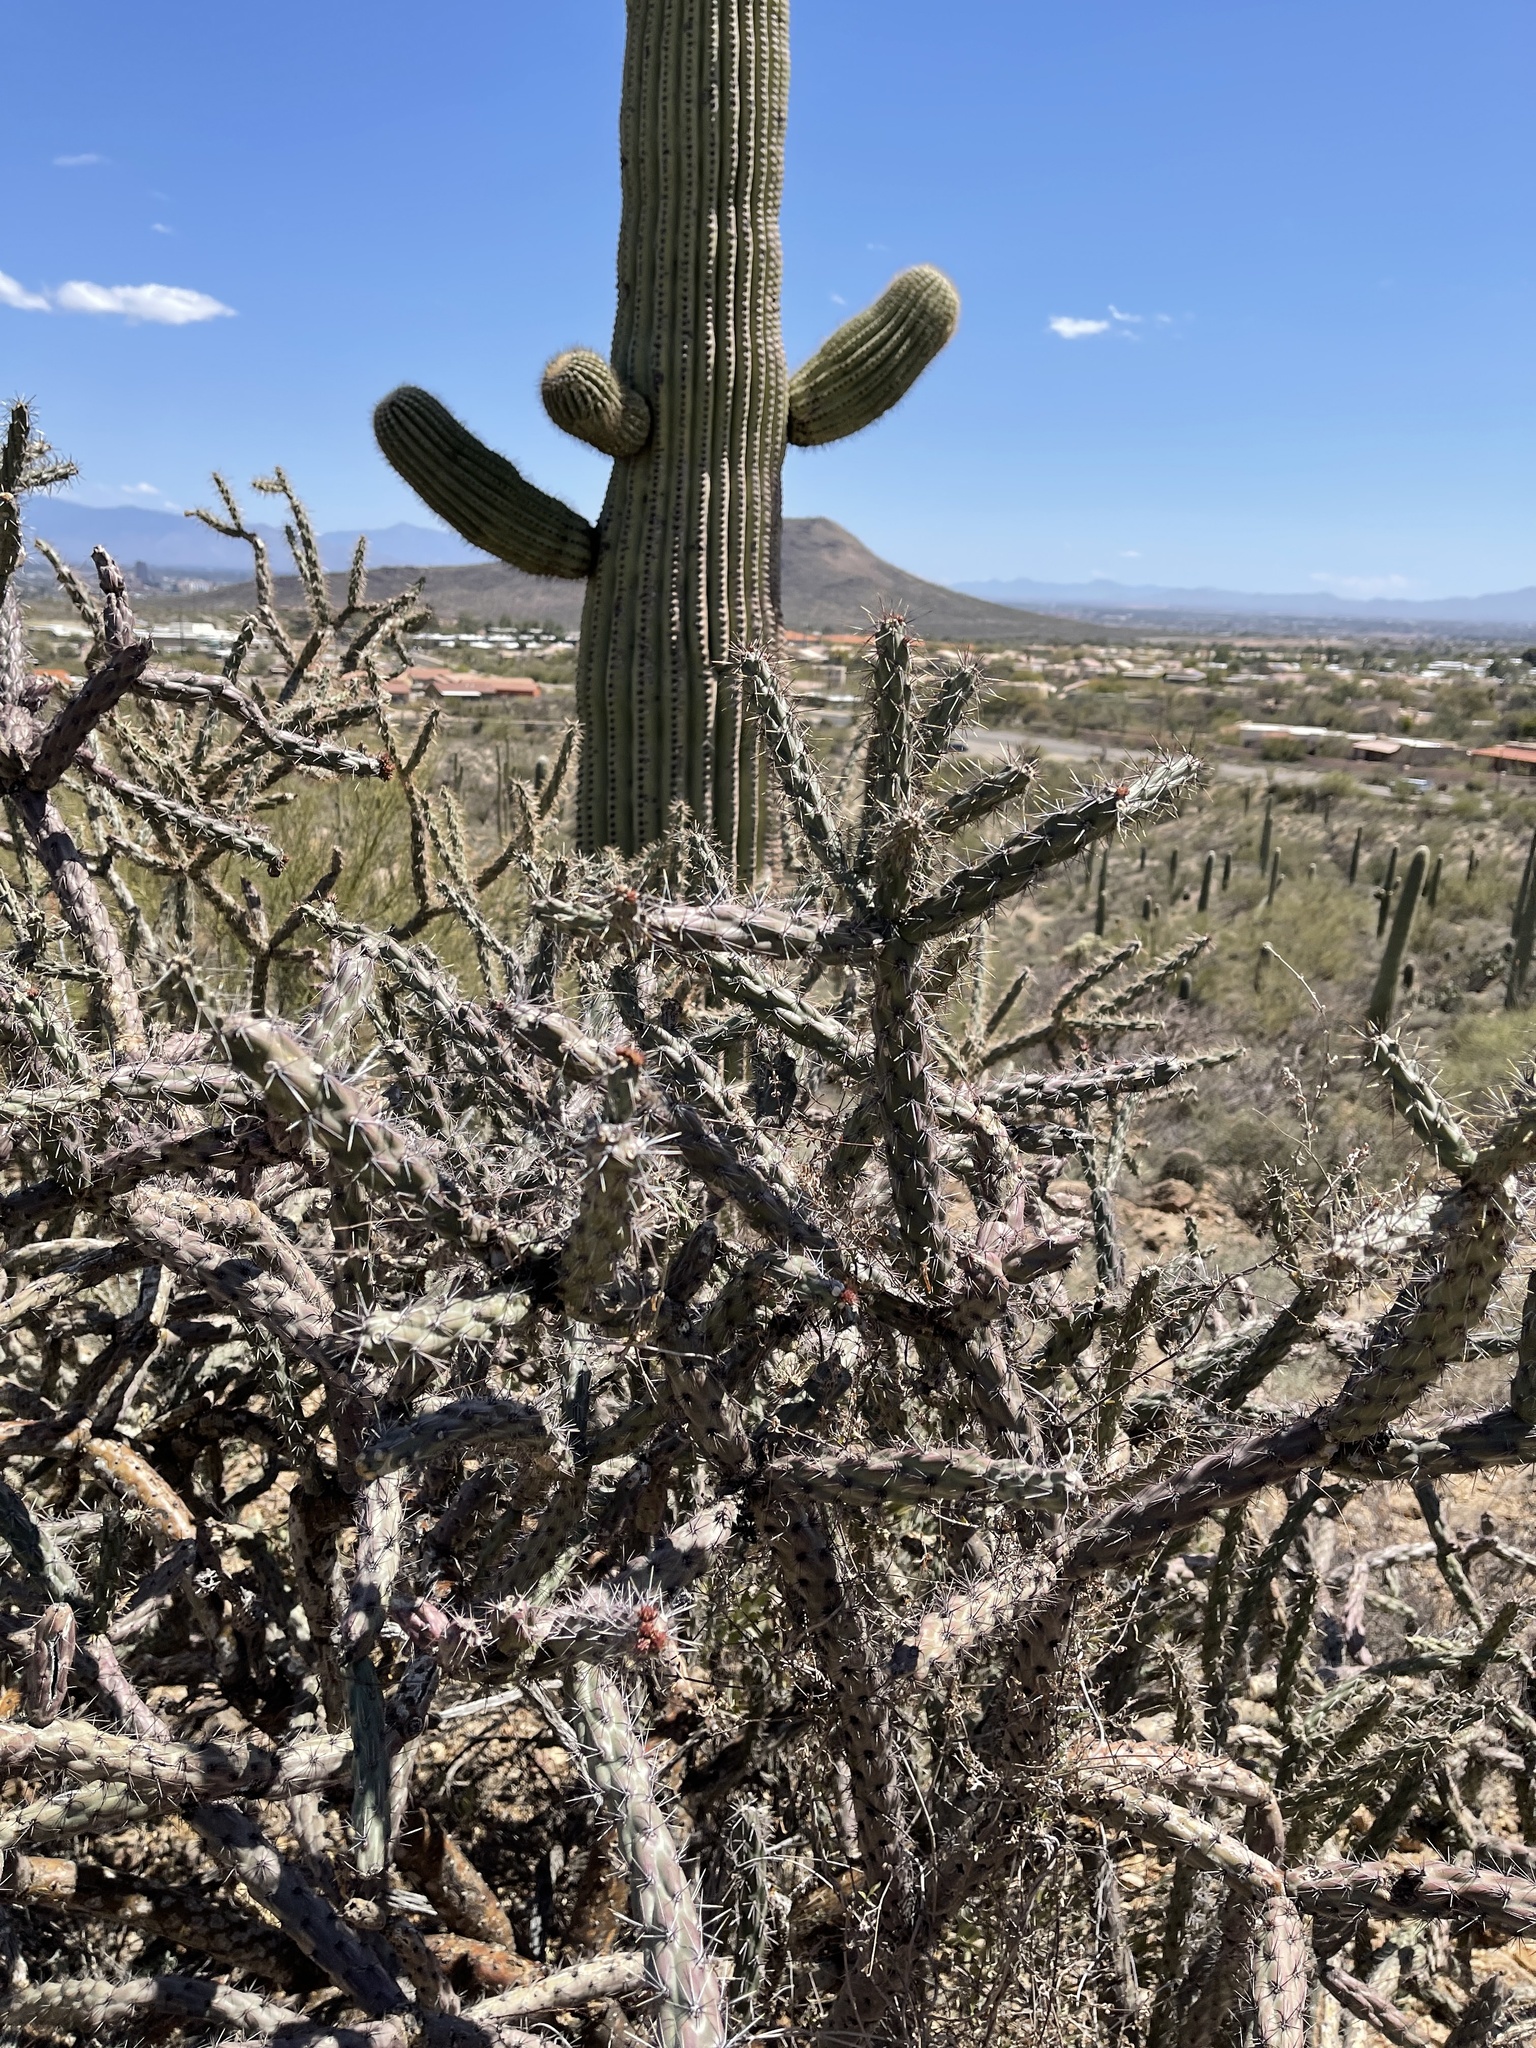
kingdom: Plantae
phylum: Tracheophyta
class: Magnoliopsida
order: Caryophyllales
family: Cactaceae
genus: Cylindropuntia
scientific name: Cylindropuntia thurberi
